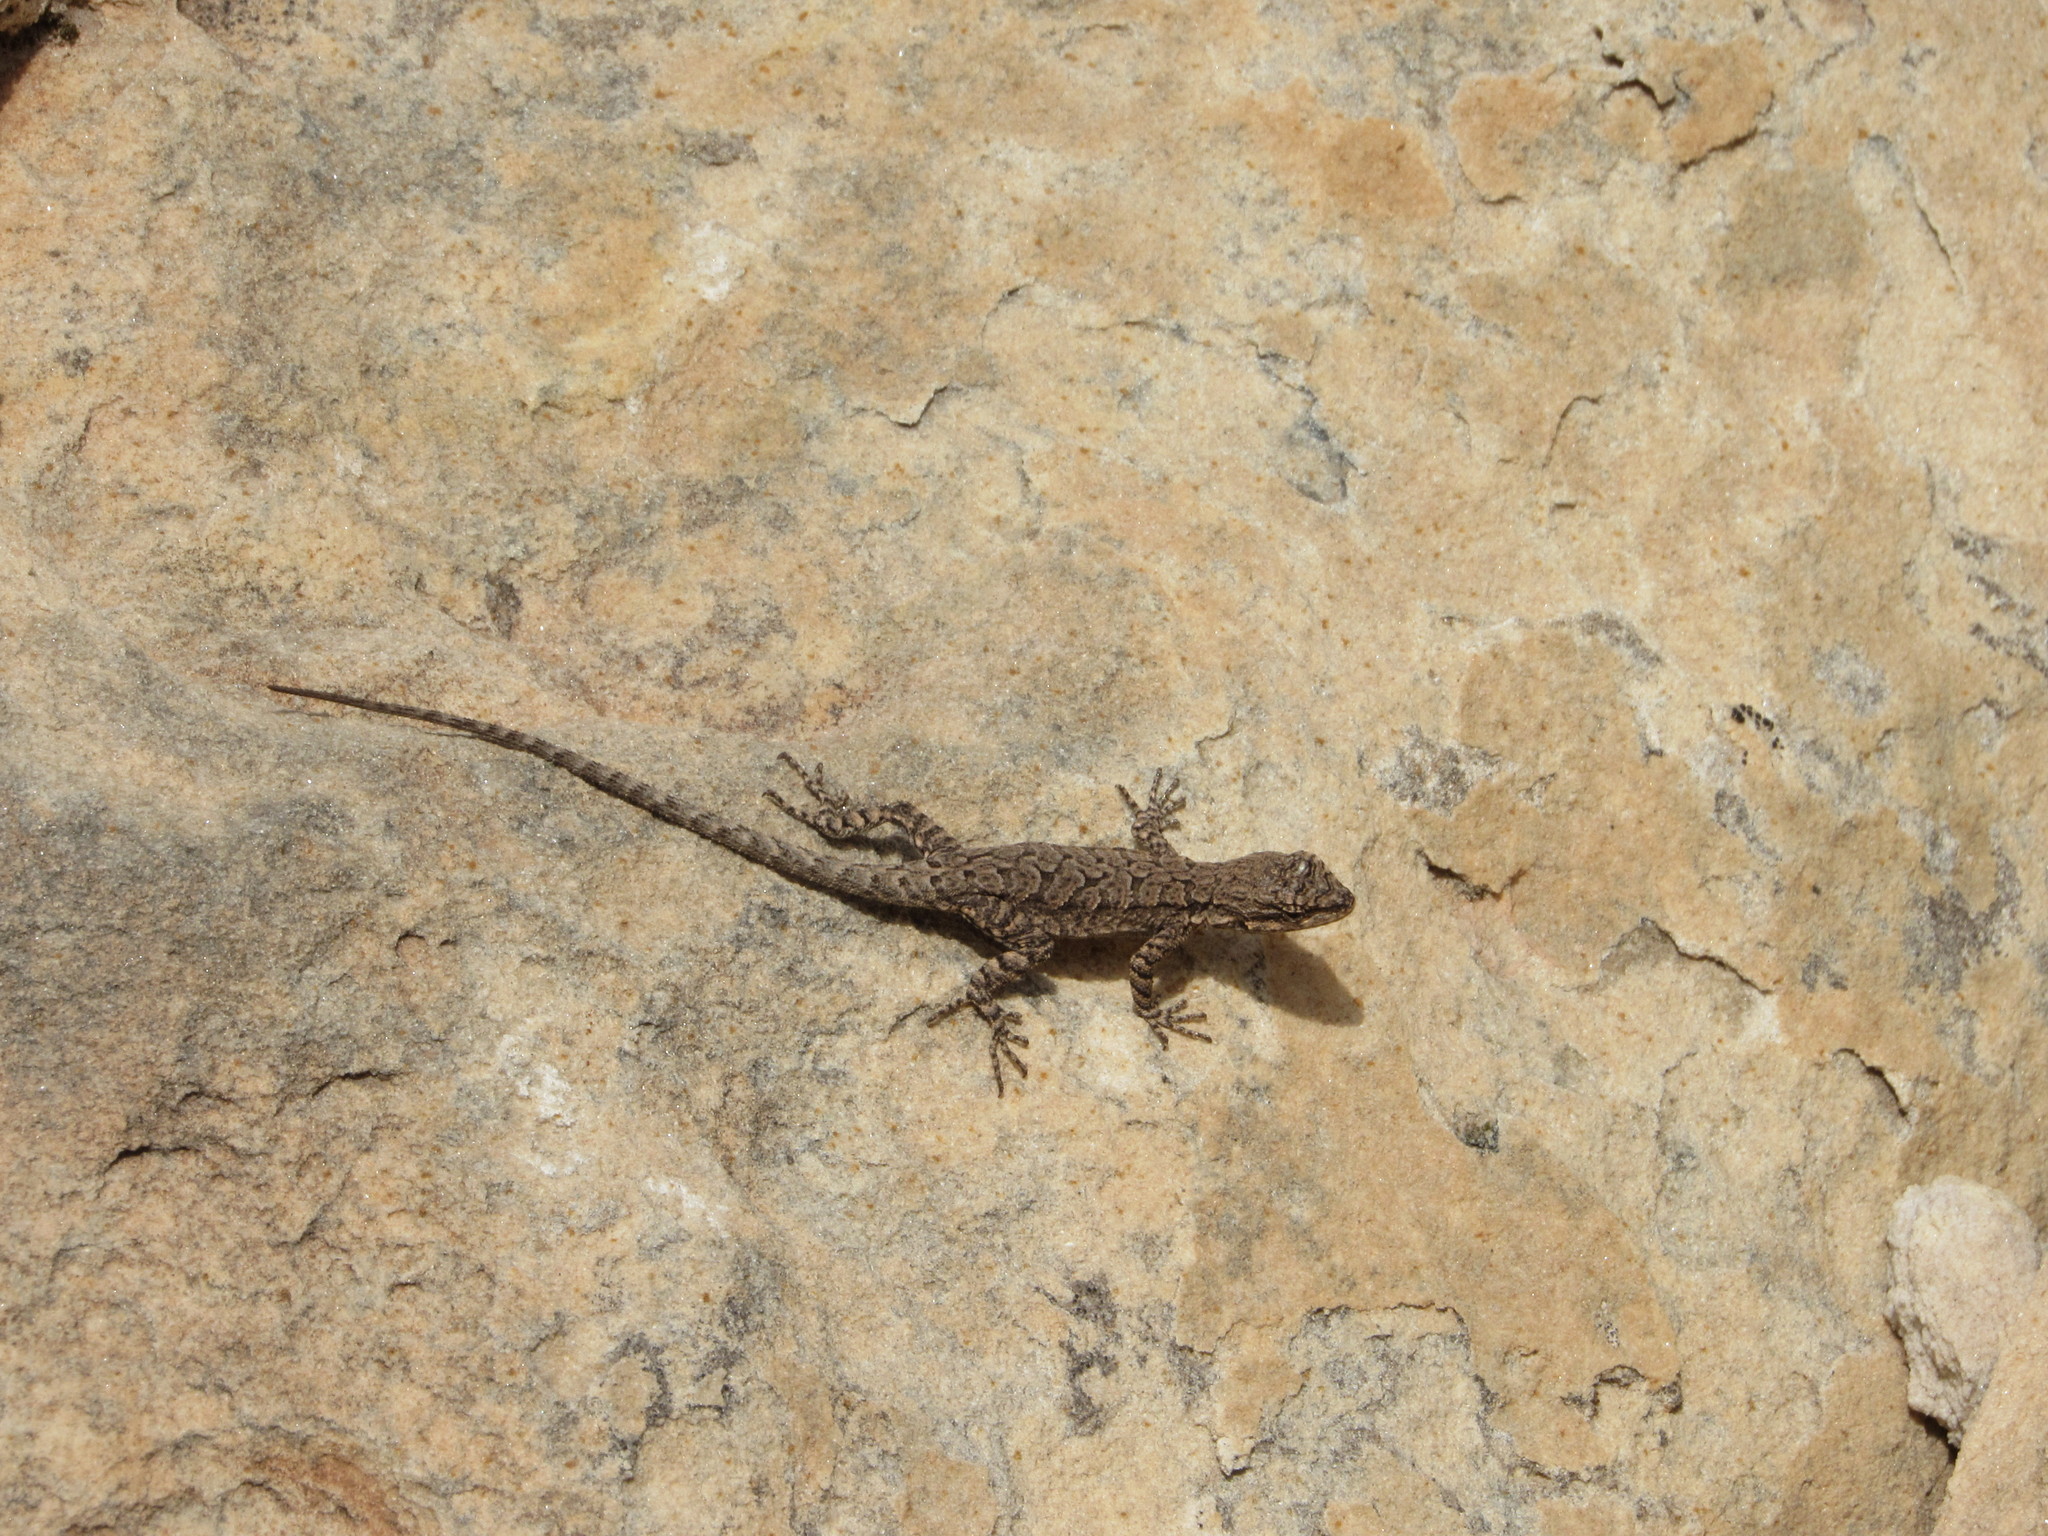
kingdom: Animalia
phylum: Chordata
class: Squamata
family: Phrynosomatidae
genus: Urosaurus
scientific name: Urosaurus ornatus
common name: Ornate tree lizard
